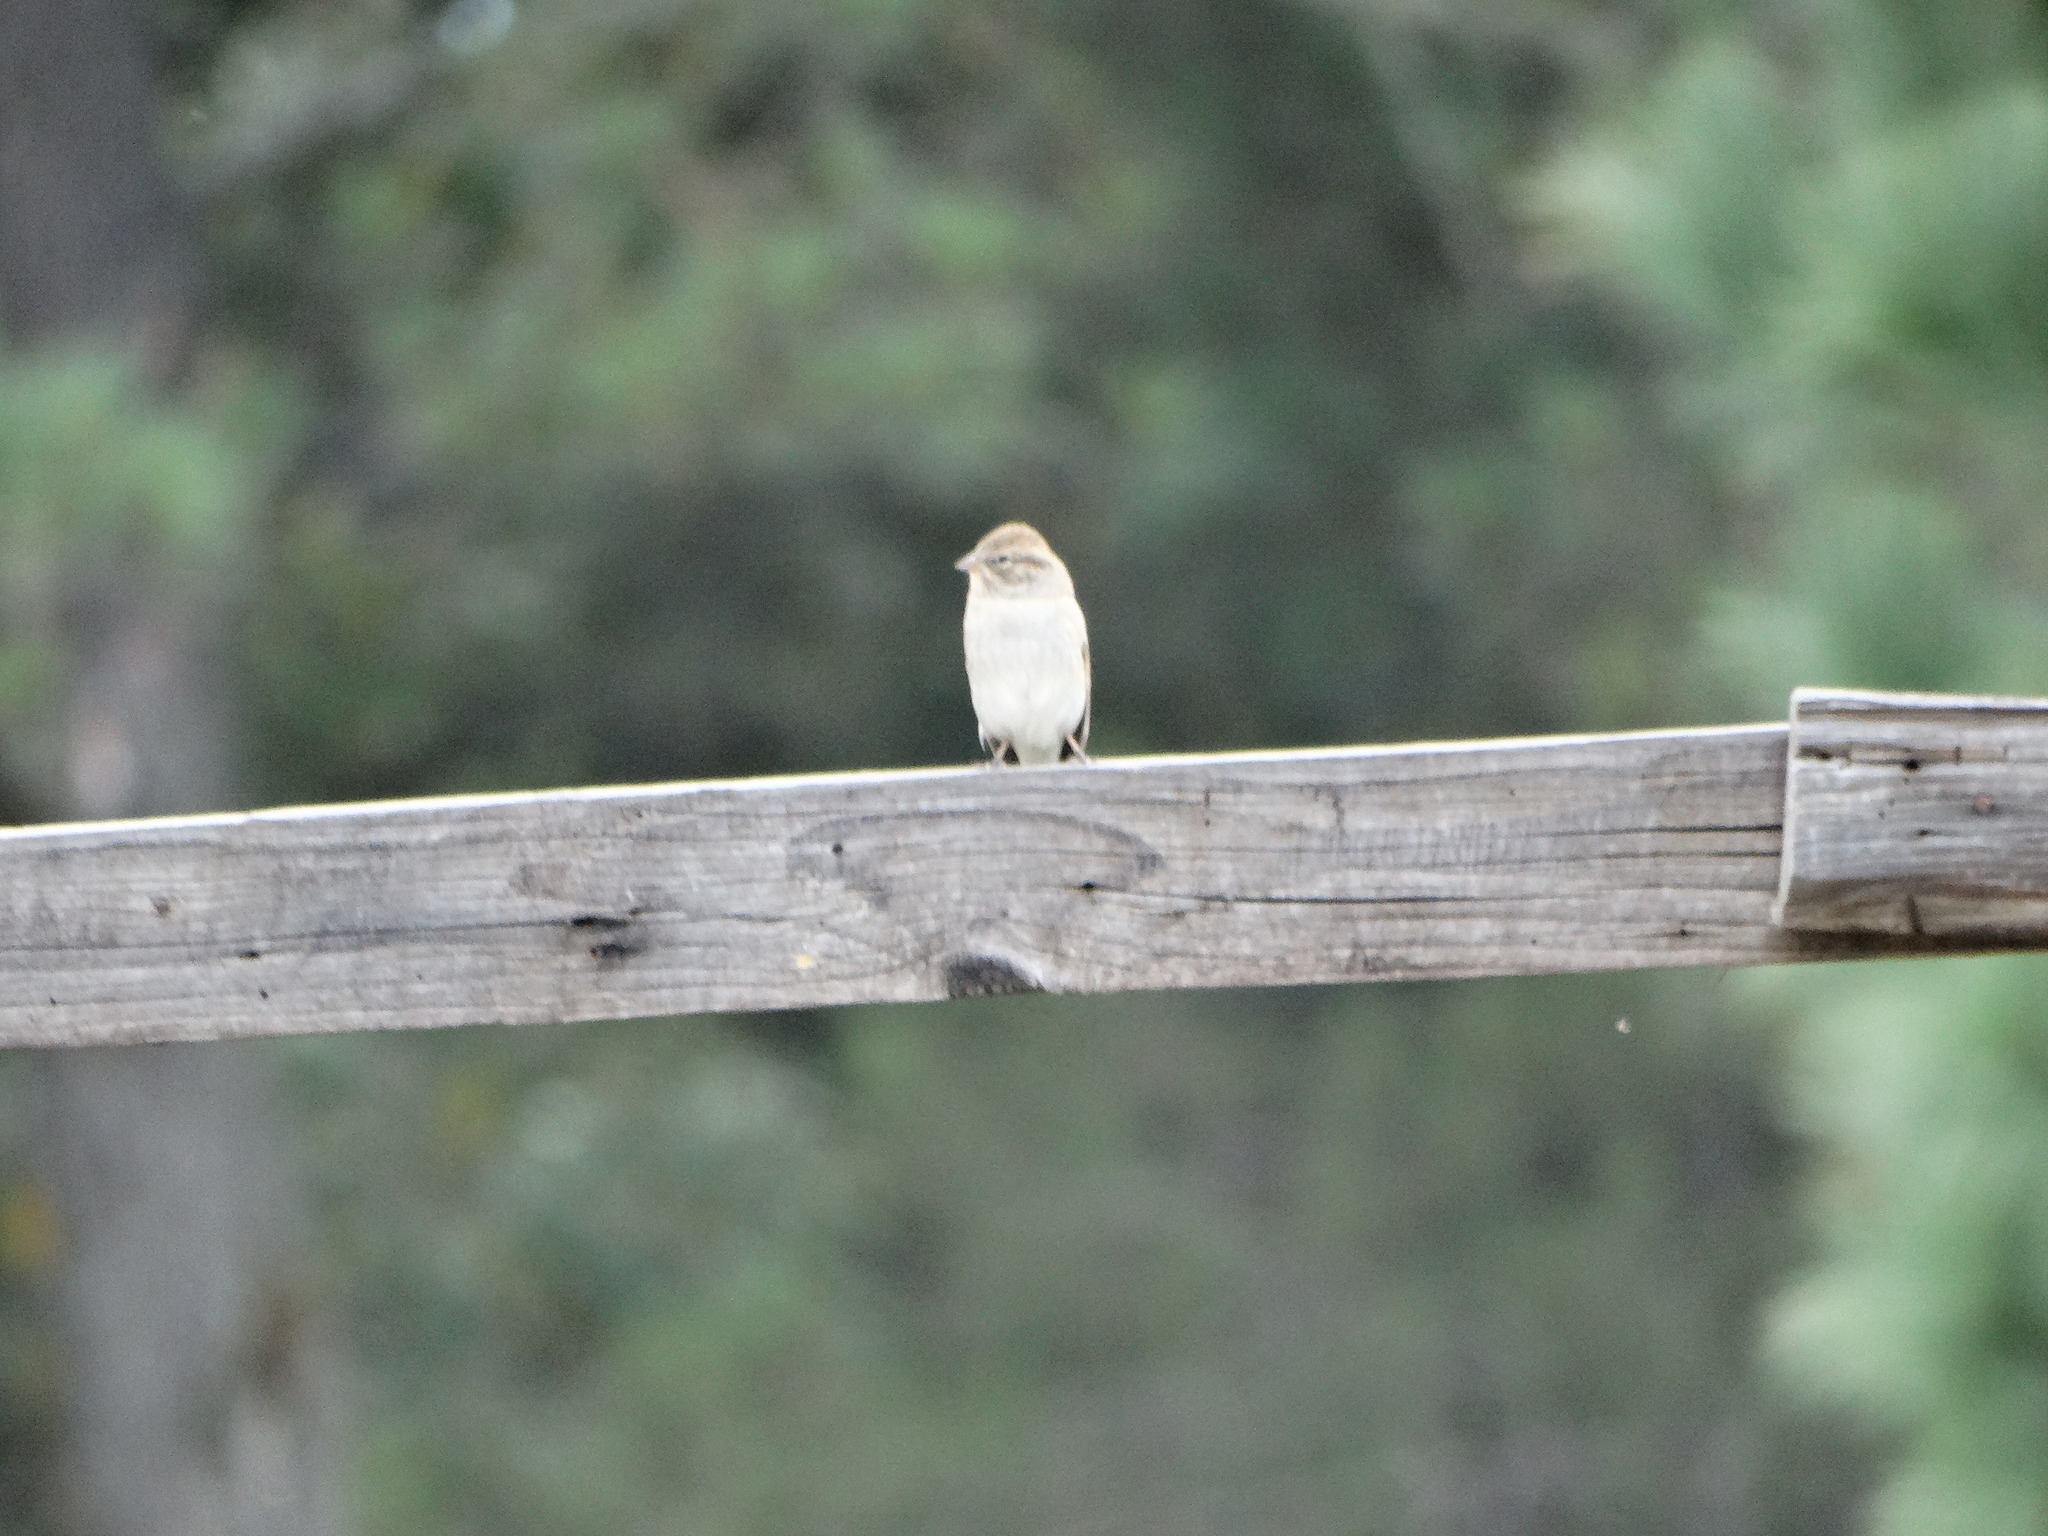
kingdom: Animalia
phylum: Chordata
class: Aves
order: Passeriformes
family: Passerellidae
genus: Spizella
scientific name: Spizella passerina
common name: Chipping sparrow
